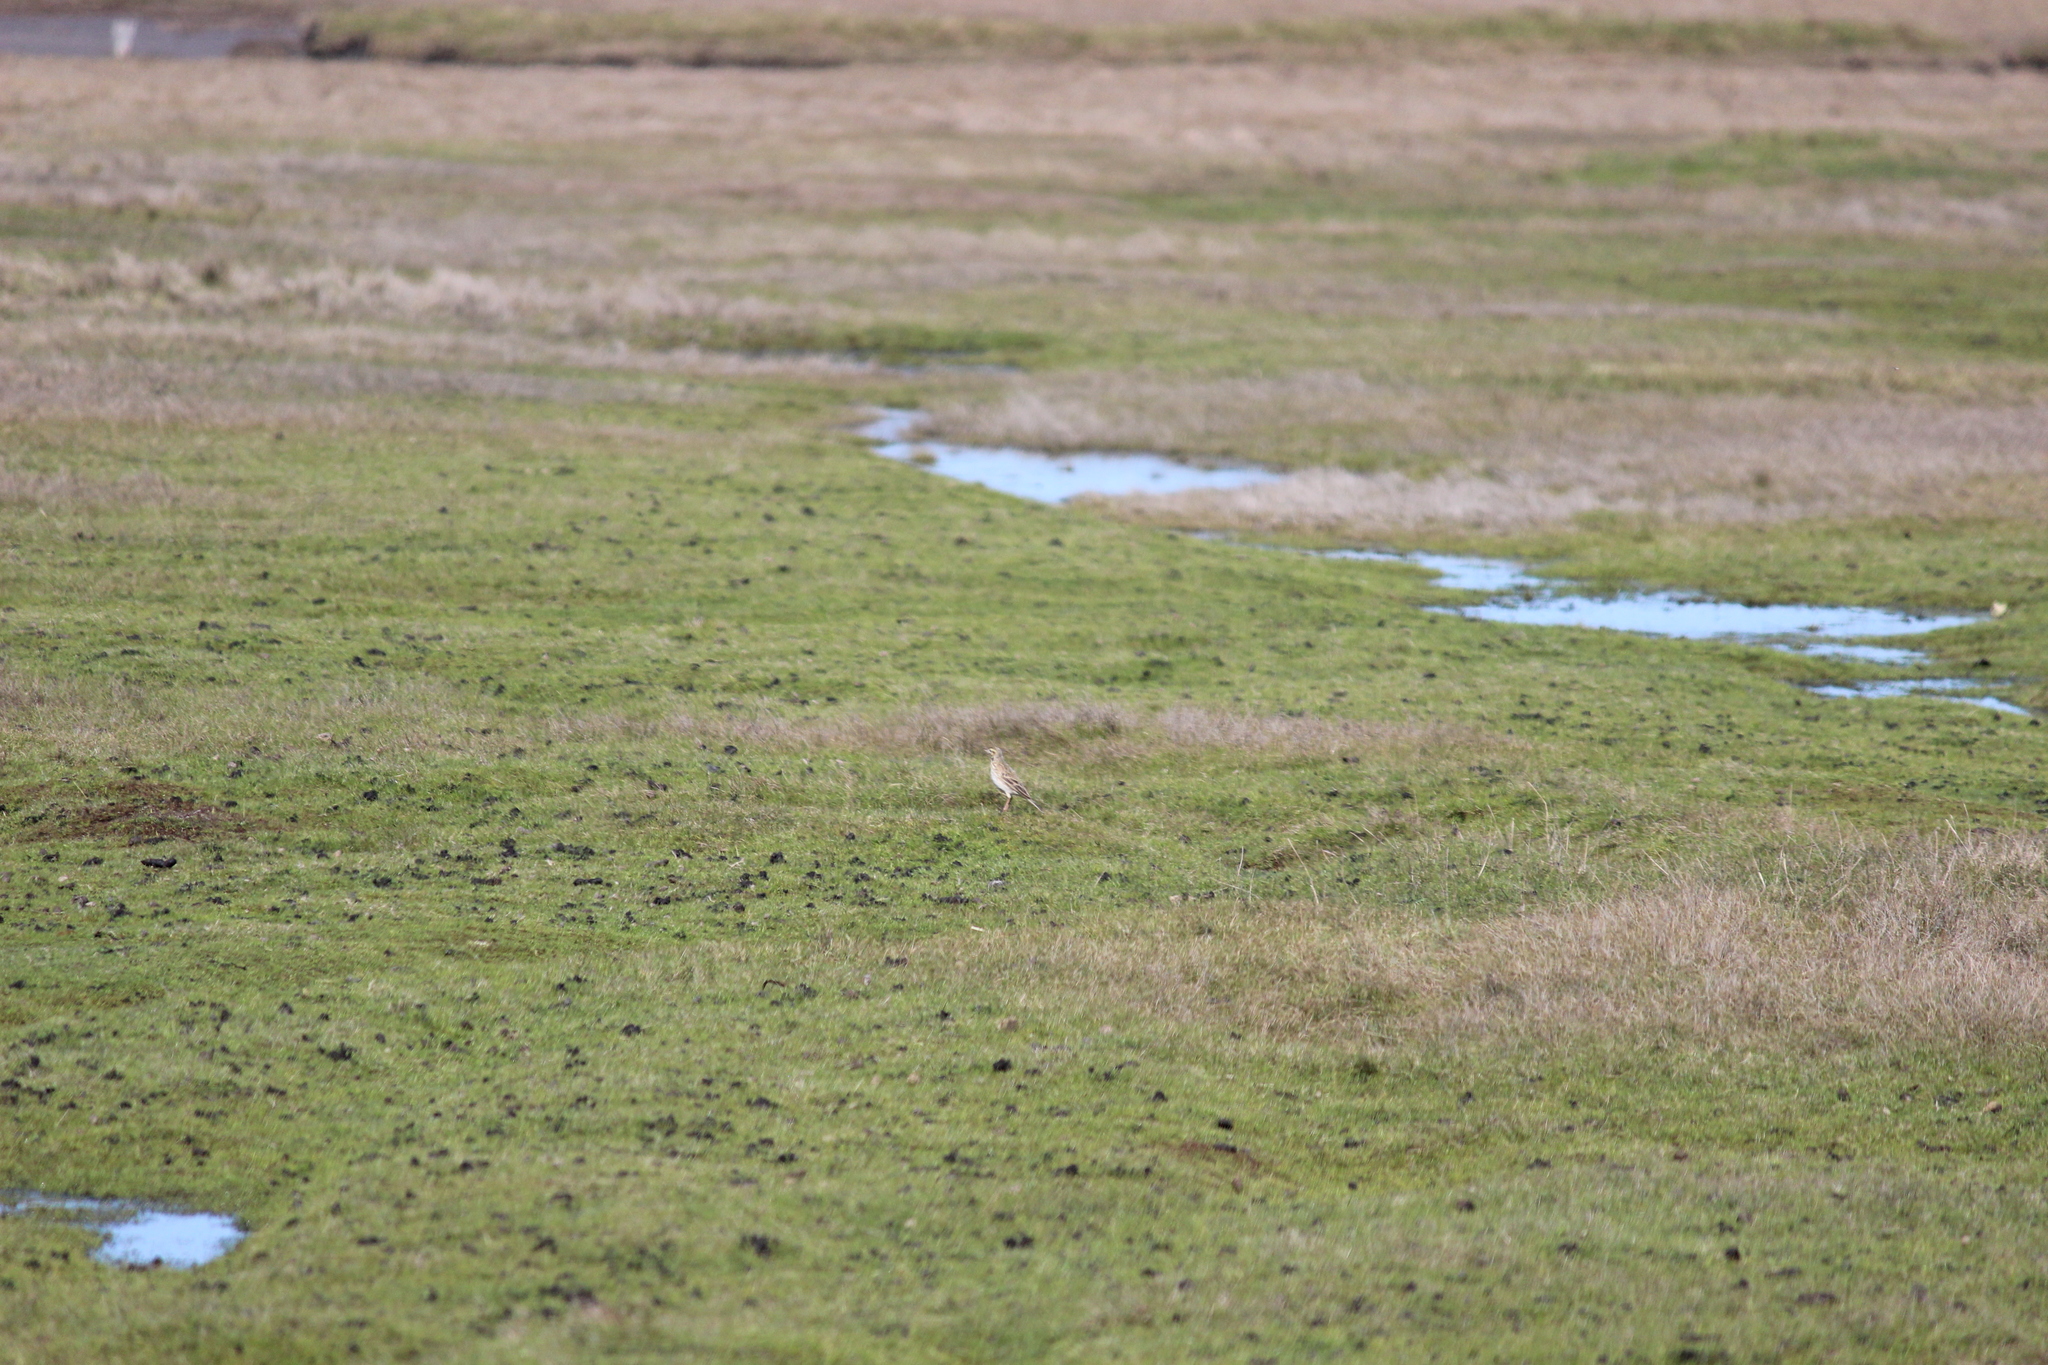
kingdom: Animalia
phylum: Chordata
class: Aves
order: Passeriformes
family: Motacillidae
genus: Anthus
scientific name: Anthus australis
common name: Australian pipit
